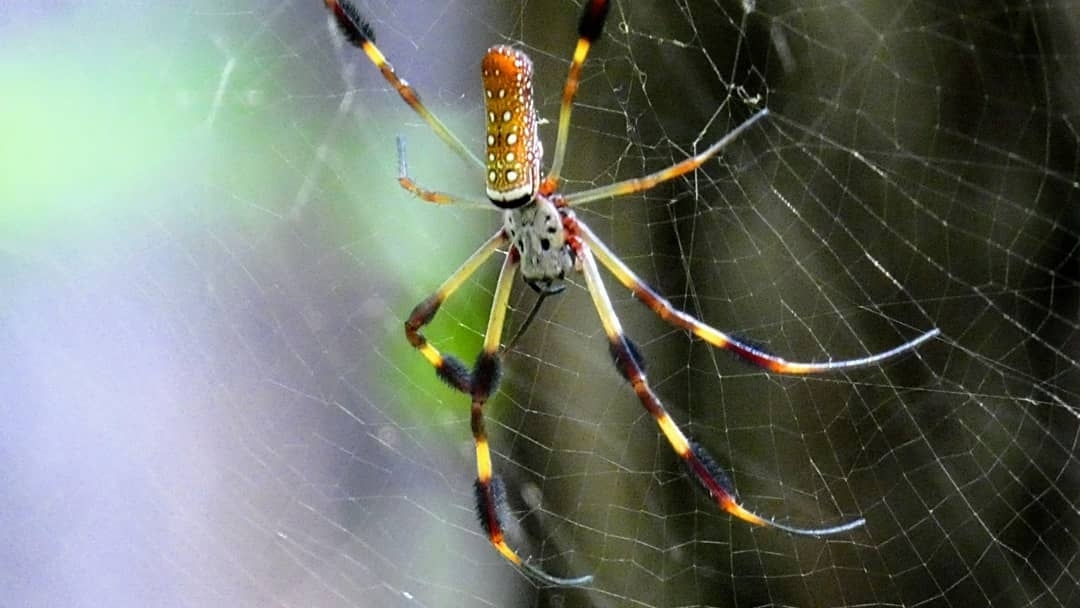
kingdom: Animalia
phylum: Arthropoda
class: Arachnida
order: Araneae
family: Araneidae
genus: Trichonephila
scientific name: Trichonephila clavipes
